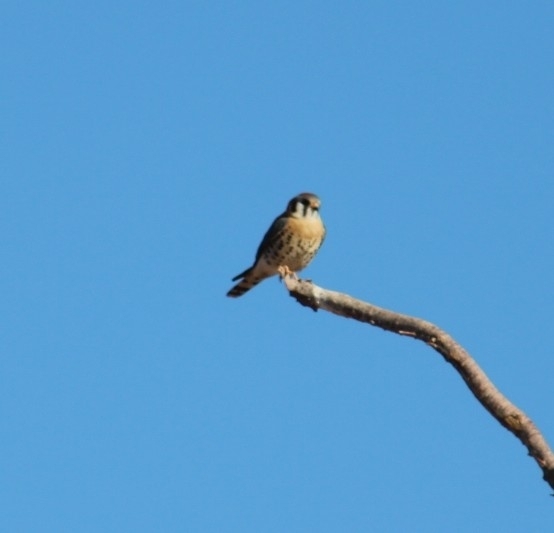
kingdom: Animalia
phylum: Chordata
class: Aves
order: Falconiformes
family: Falconidae
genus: Falco
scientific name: Falco sparverius
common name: American kestrel
